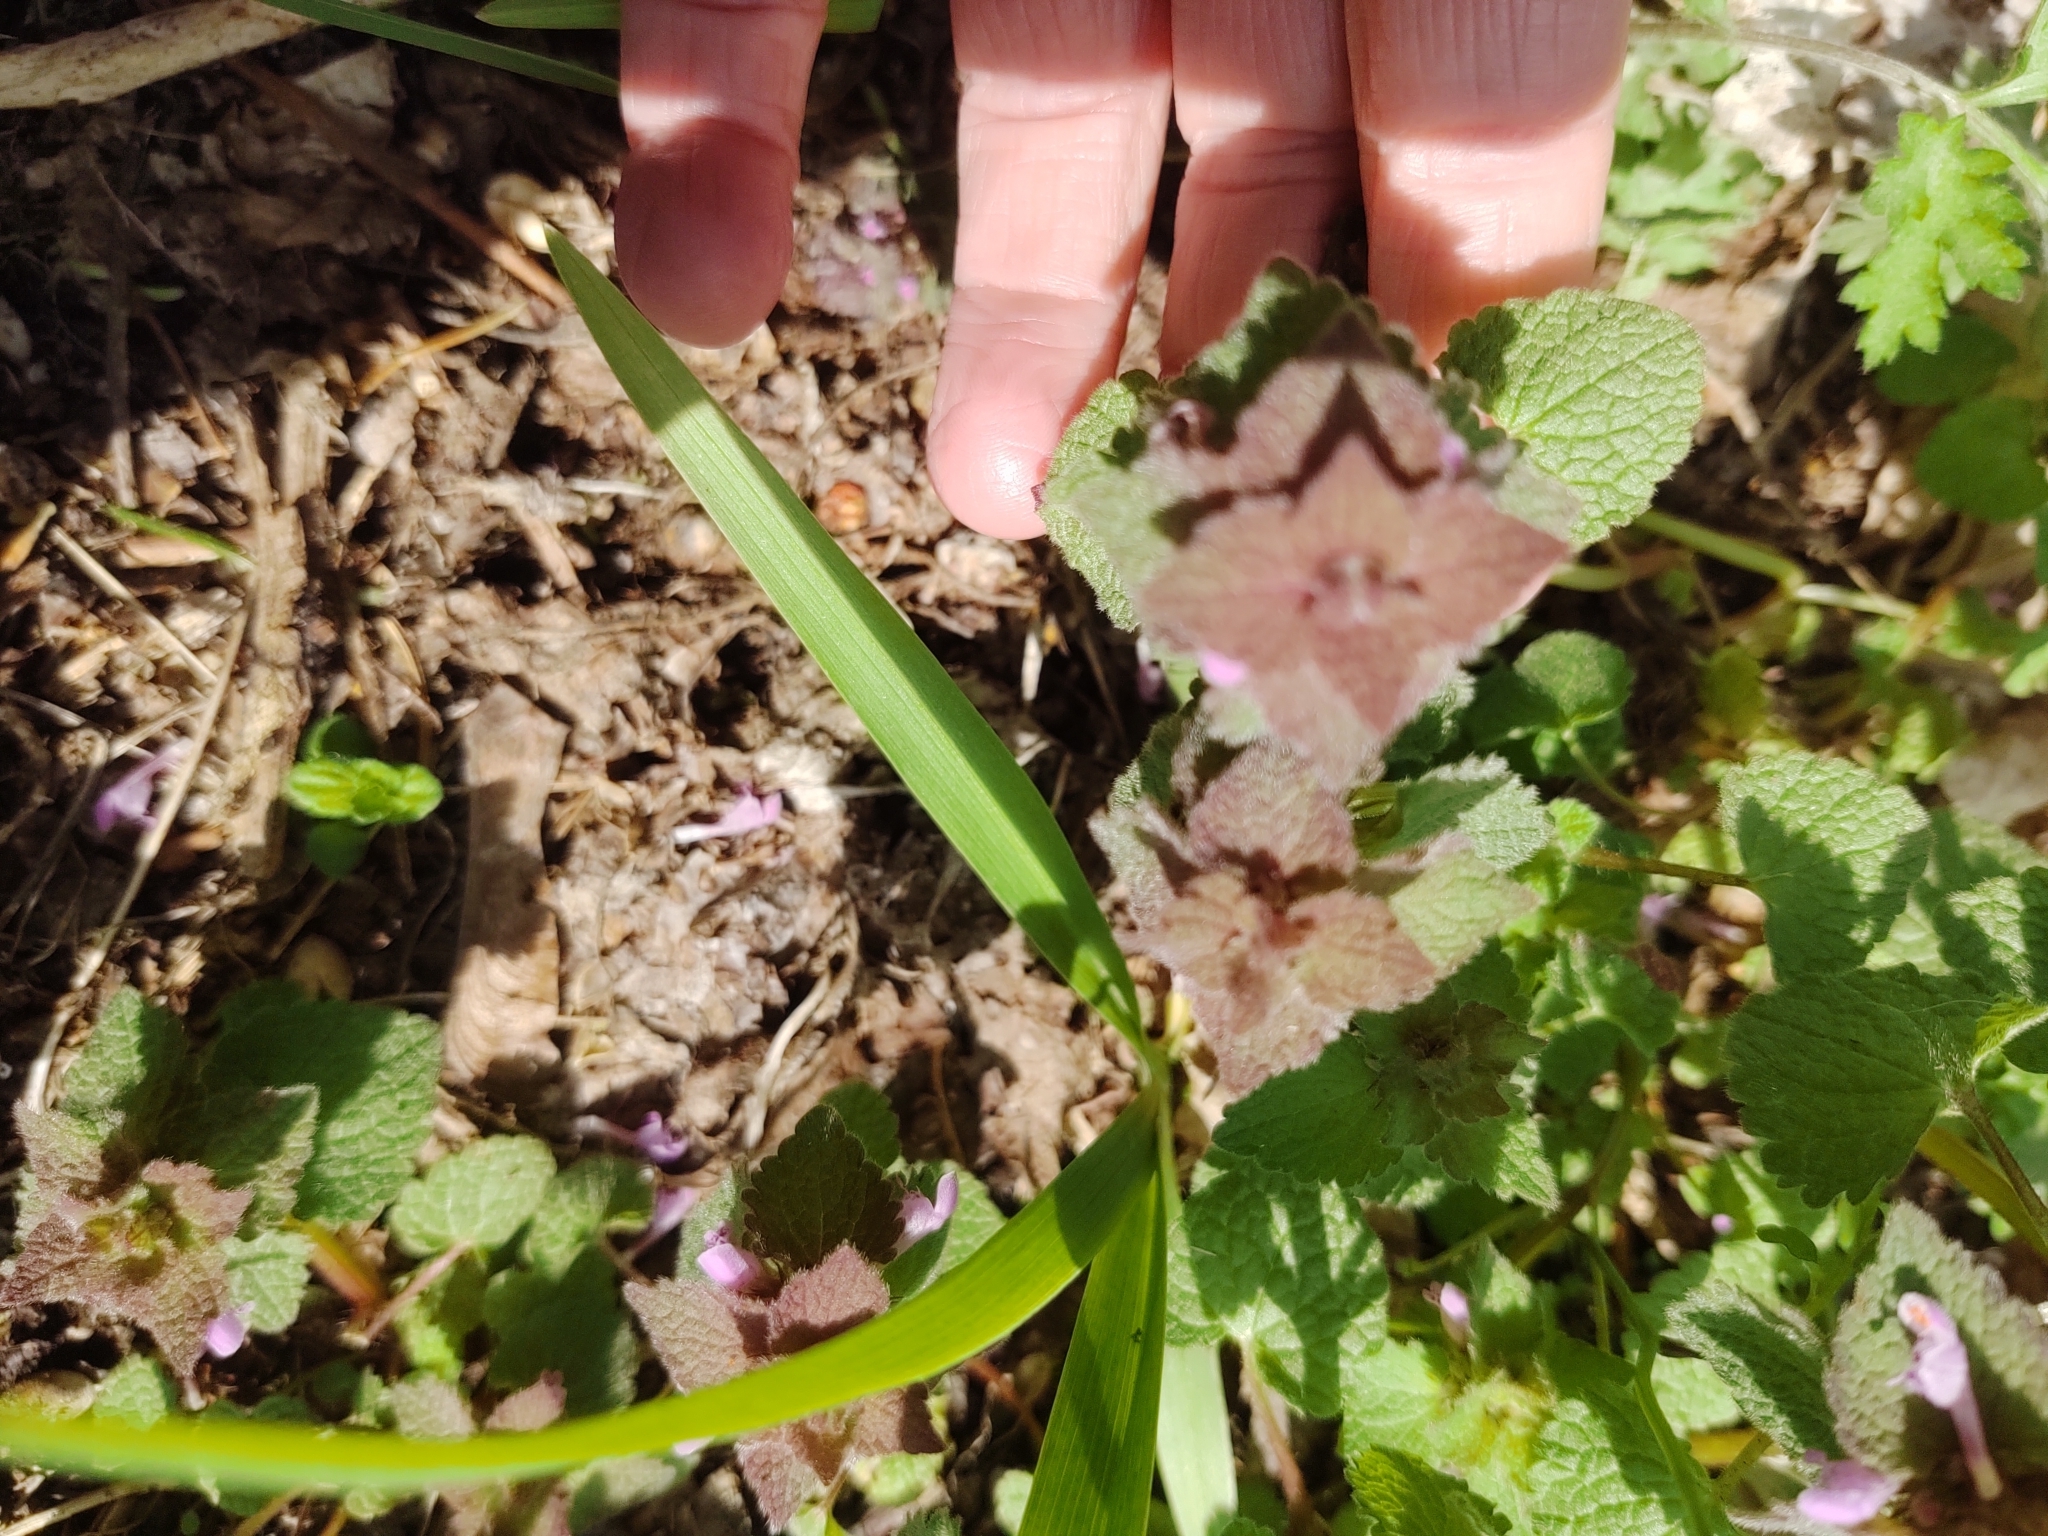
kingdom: Plantae
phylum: Tracheophyta
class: Magnoliopsida
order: Lamiales
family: Lamiaceae
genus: Lamium
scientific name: Lamium purpureum
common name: Red dead-nettle
